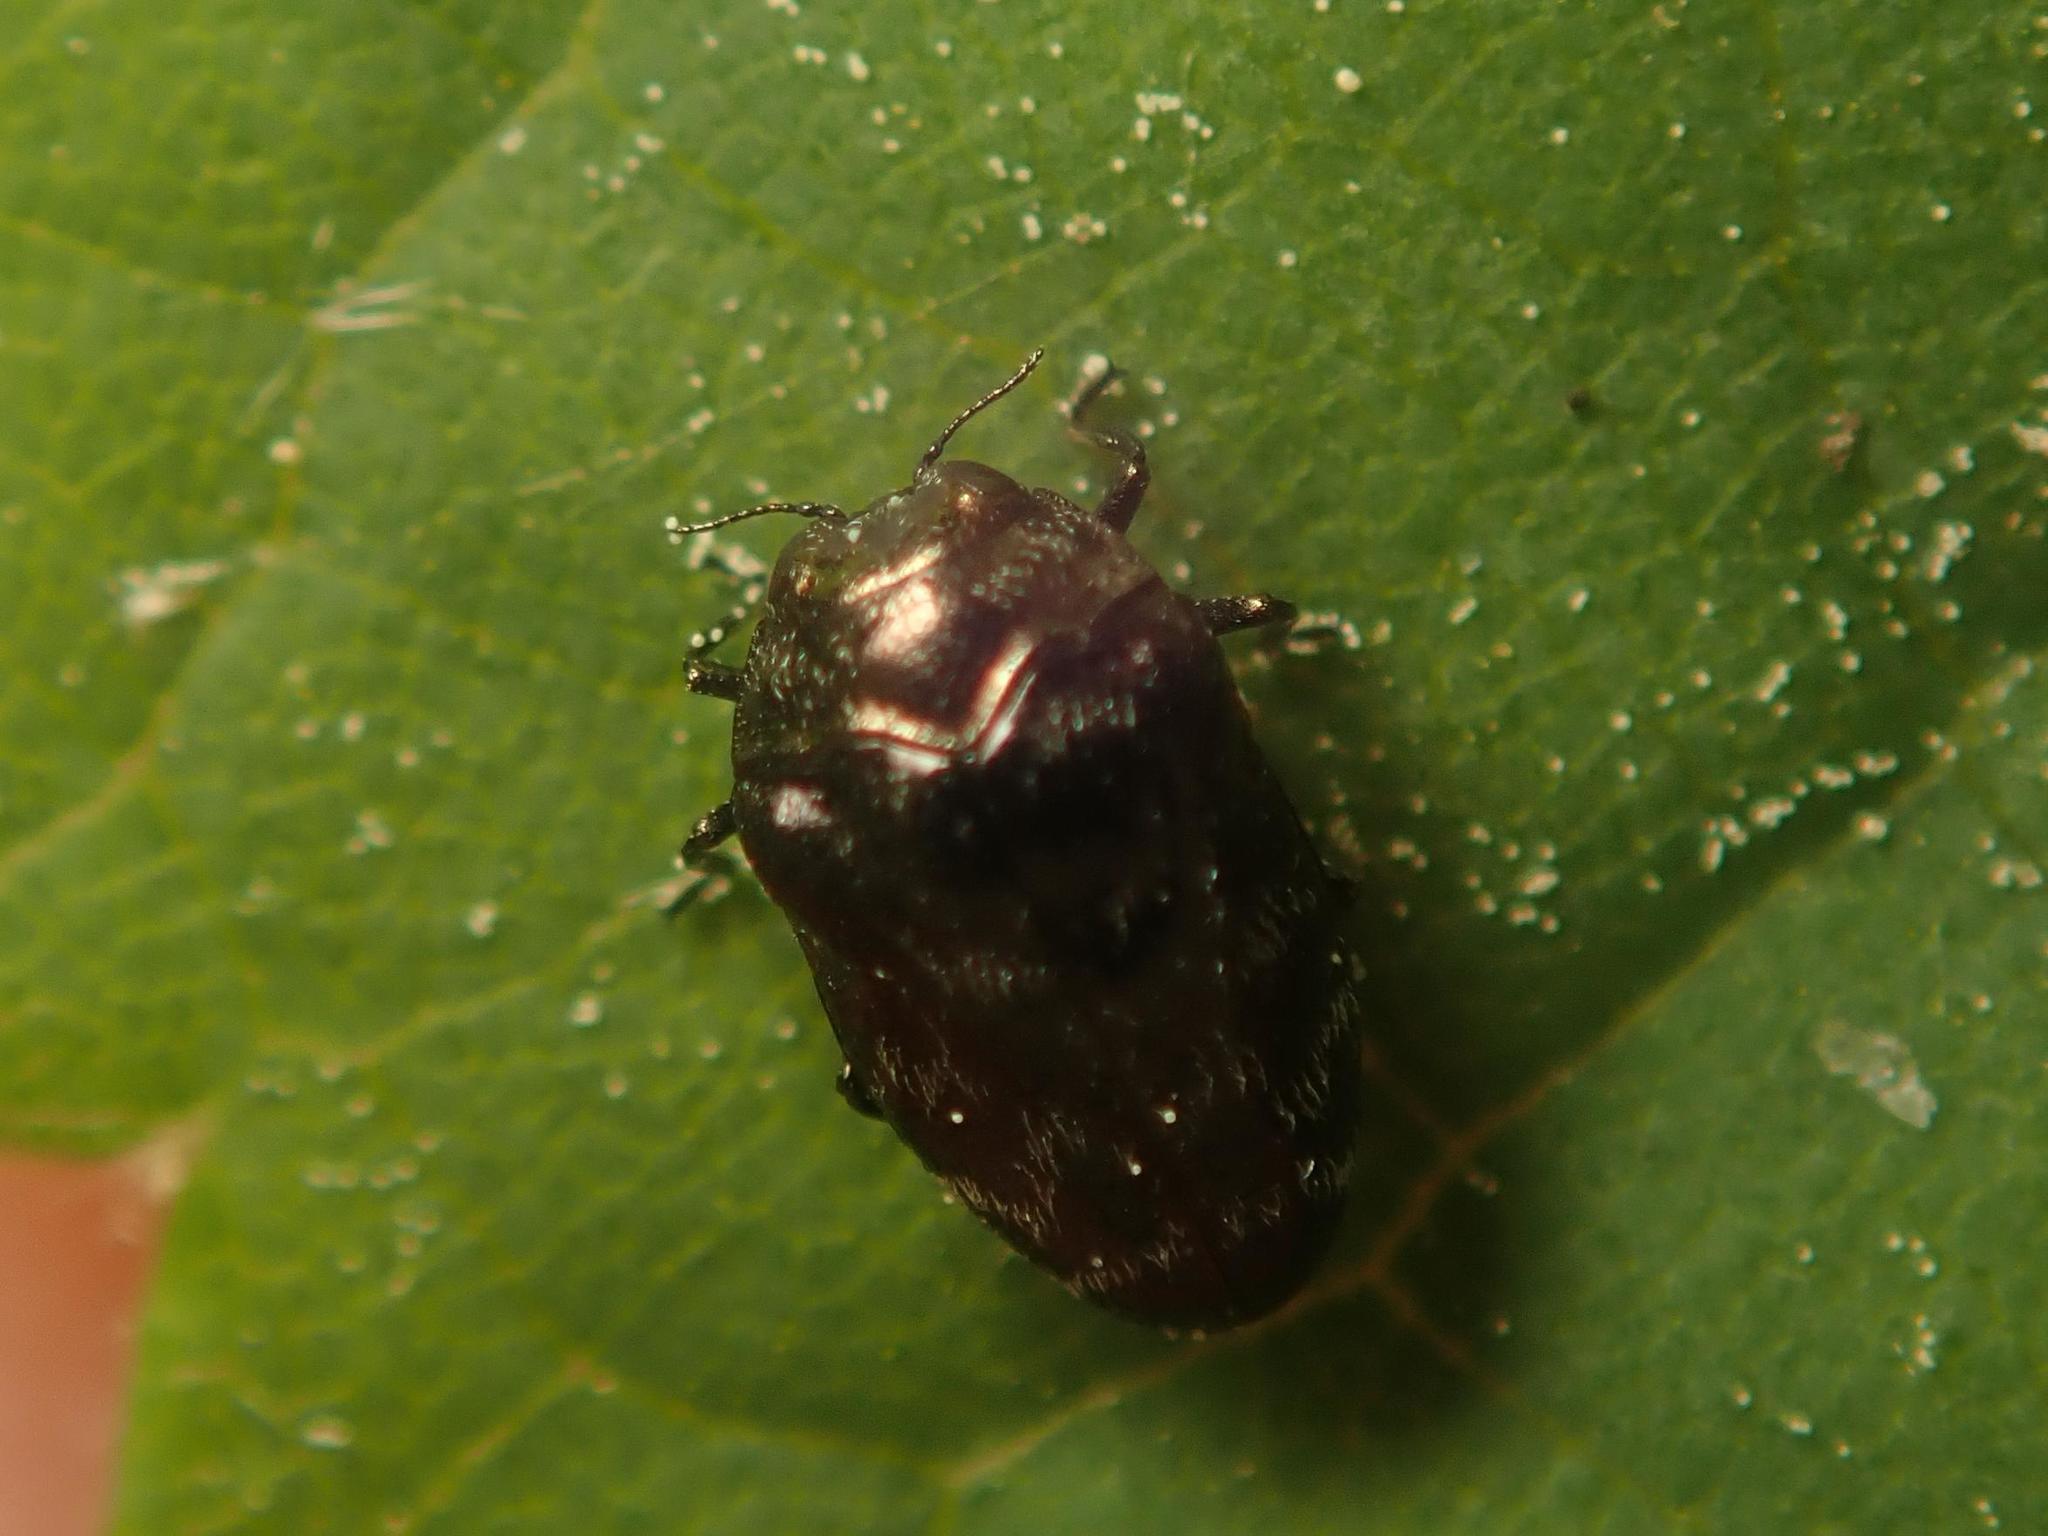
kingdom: Animalia
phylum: Arthropoda
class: Insecta
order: Coleoptera
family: Buprestidae
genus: Trachys
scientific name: Trachys minutus
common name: Metallic wood-boring beetle
